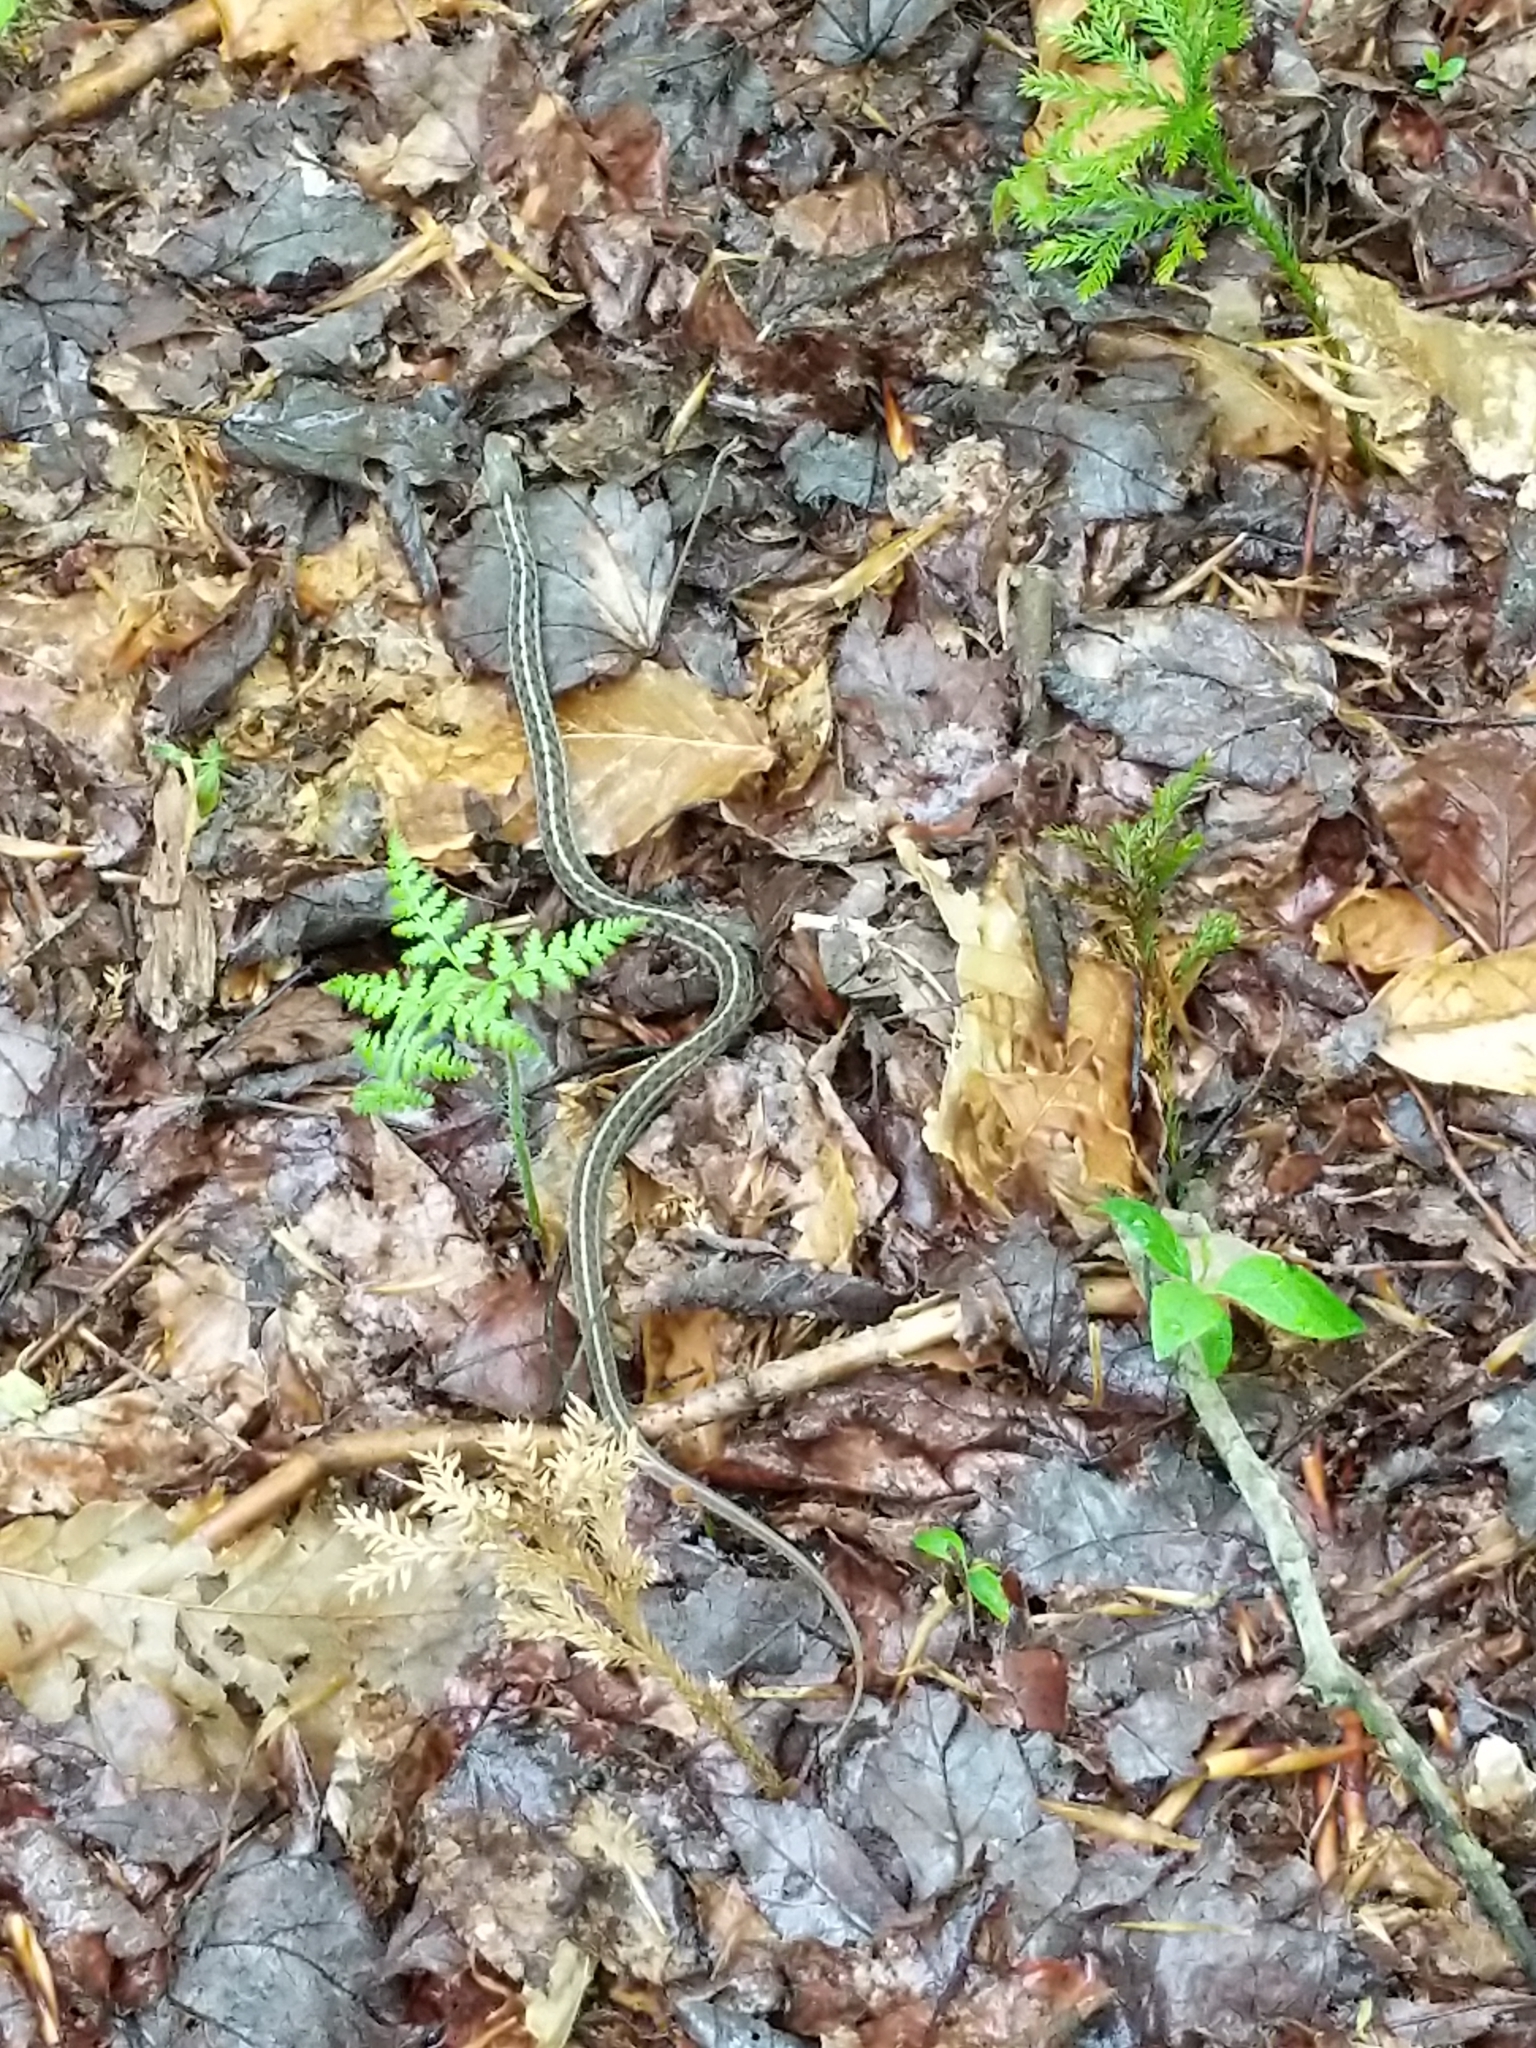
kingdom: Animalia
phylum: Chordata
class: Squamata
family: Colubridae
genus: Thamnophis
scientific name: Thamnophis sirtalis
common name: Common garter snake
